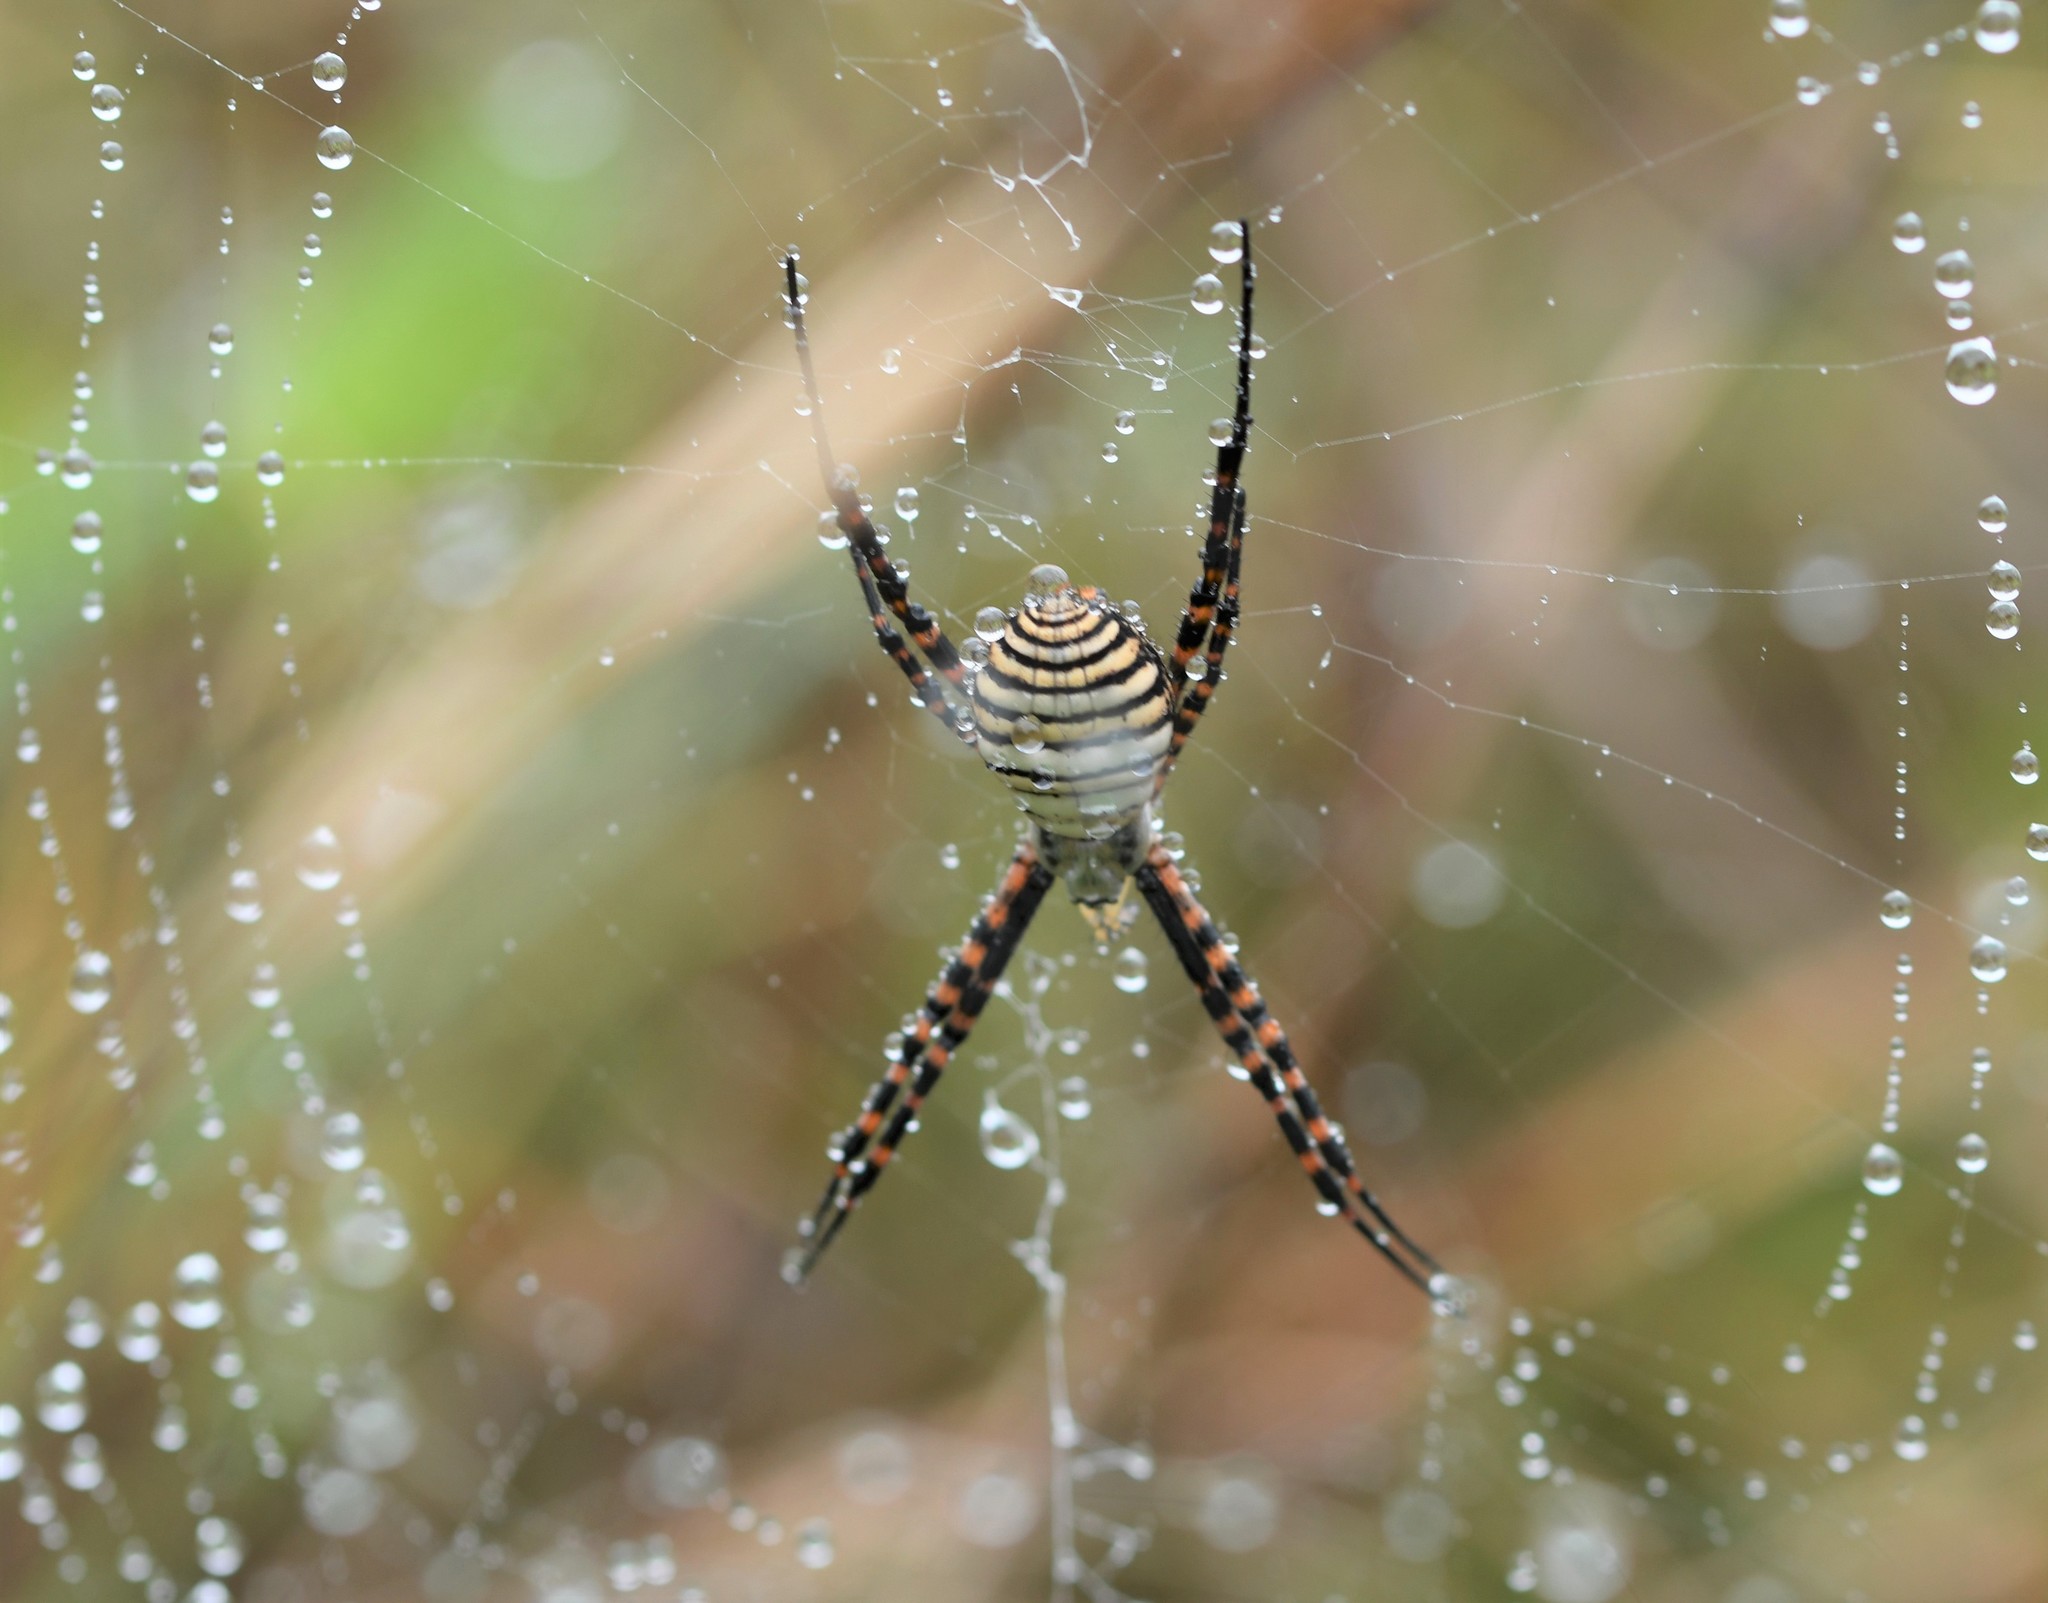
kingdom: Animalia
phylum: Arthropoda
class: Arachnida
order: Araneae
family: Araneidae
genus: Argiope
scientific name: Argiope trifasciata
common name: Banded garden spider
